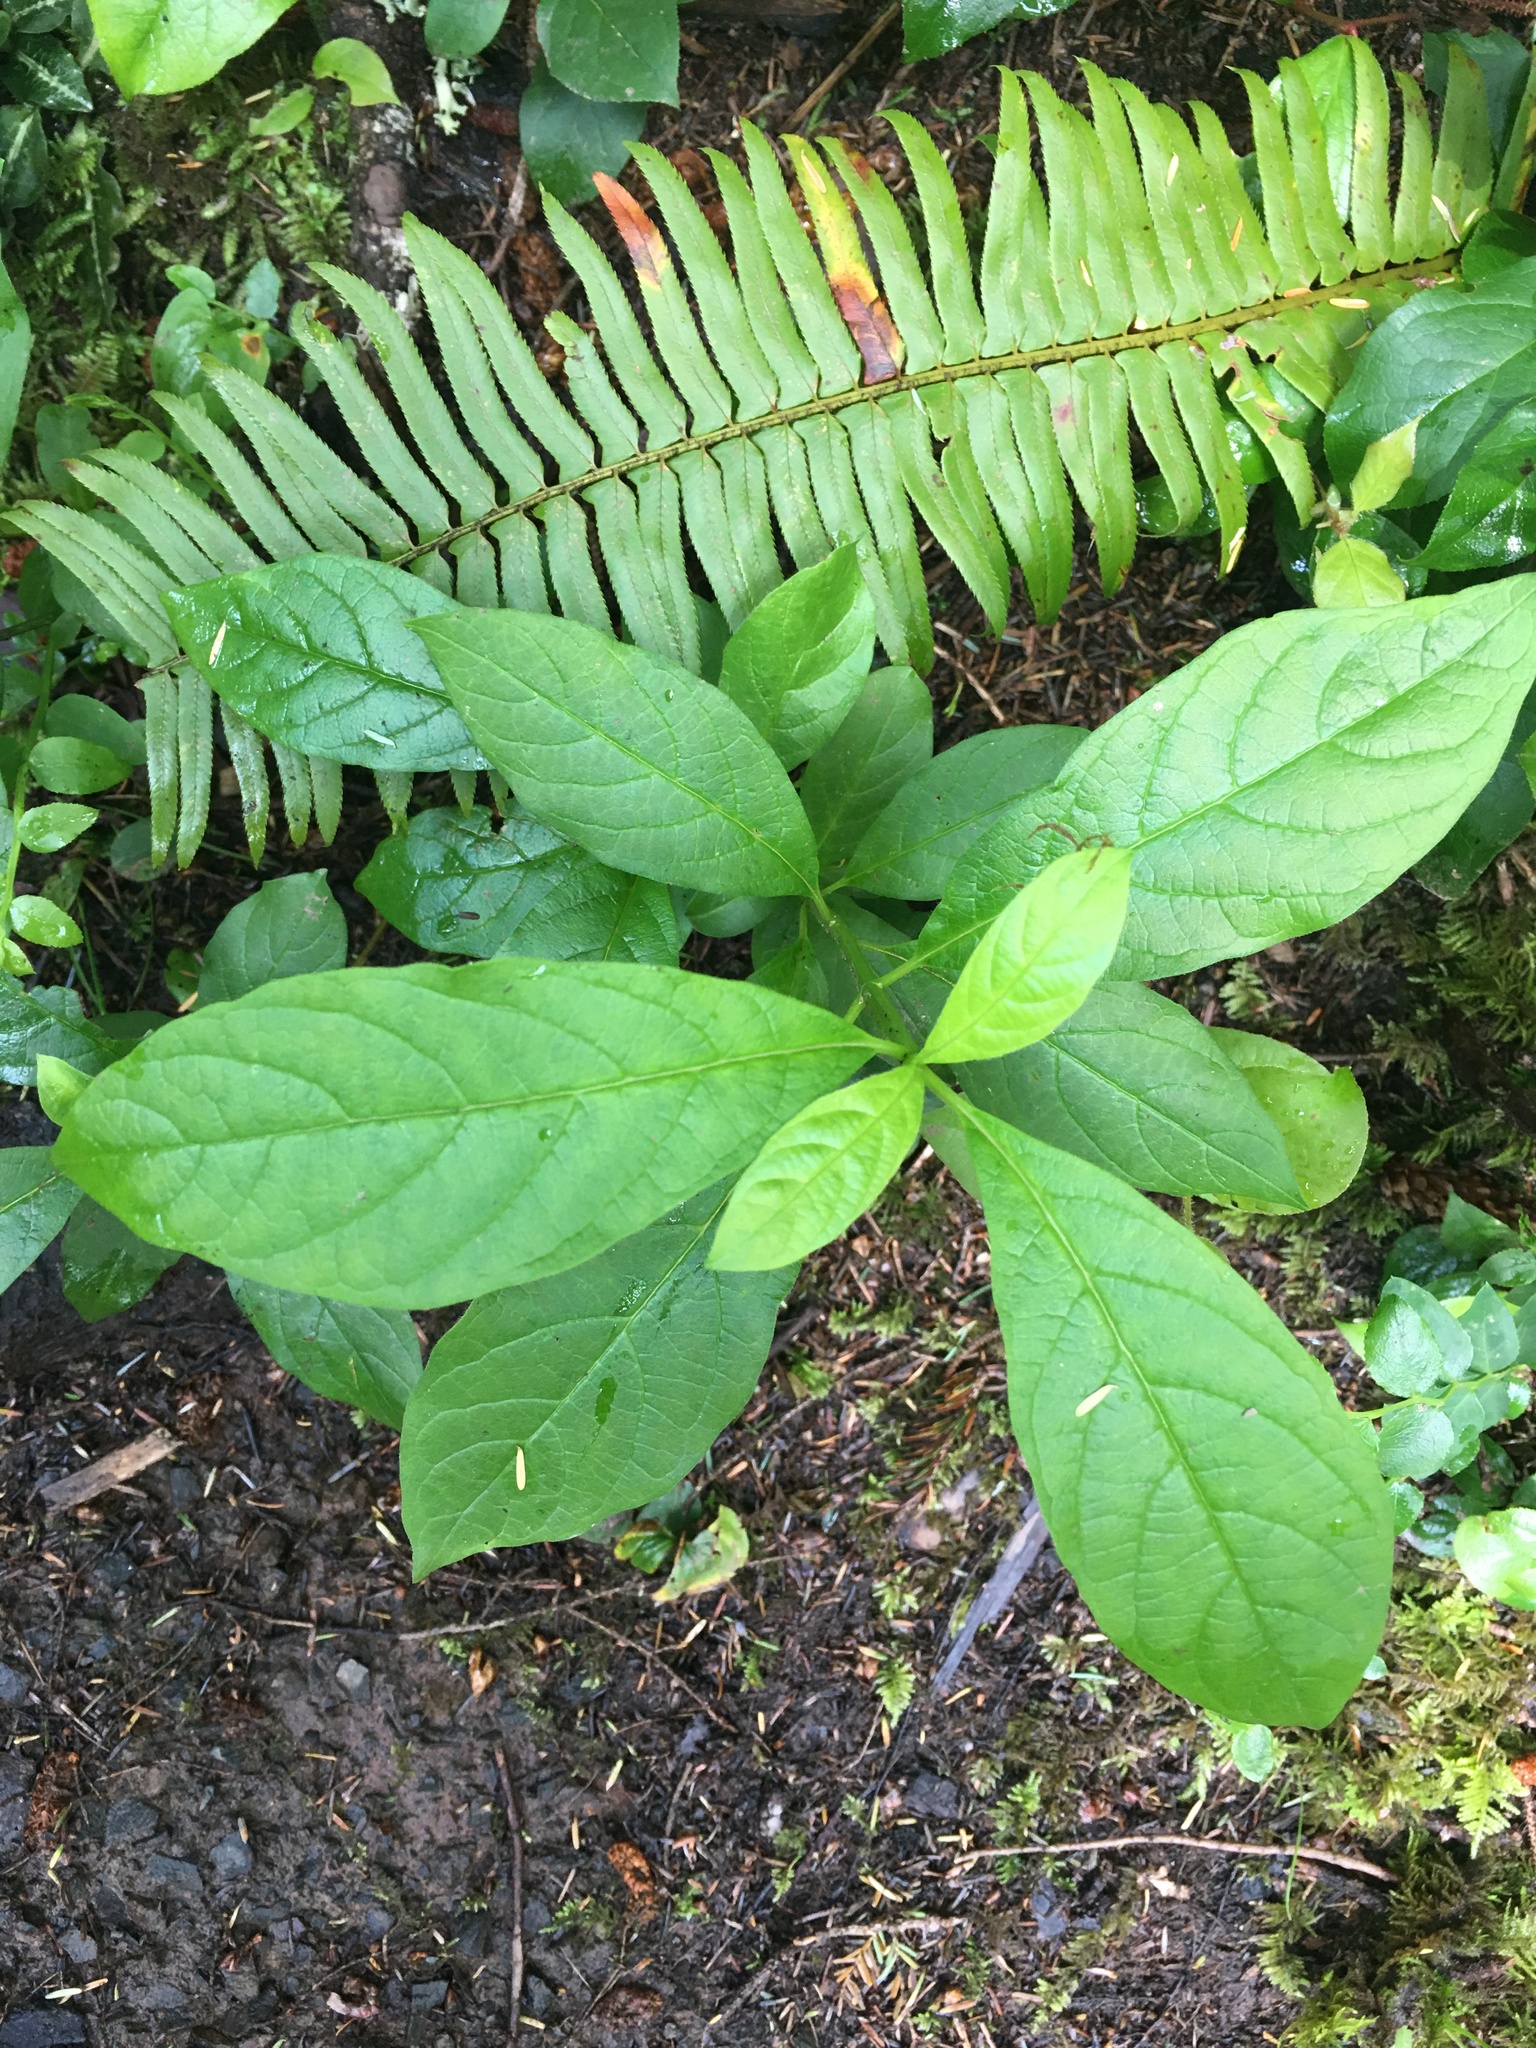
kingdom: Plantae
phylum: Tracheophyta
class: Magnoliopsida
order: Rosales
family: Rosaceae
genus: Oemleria
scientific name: Oemleria cerasiformis
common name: Osoberry
